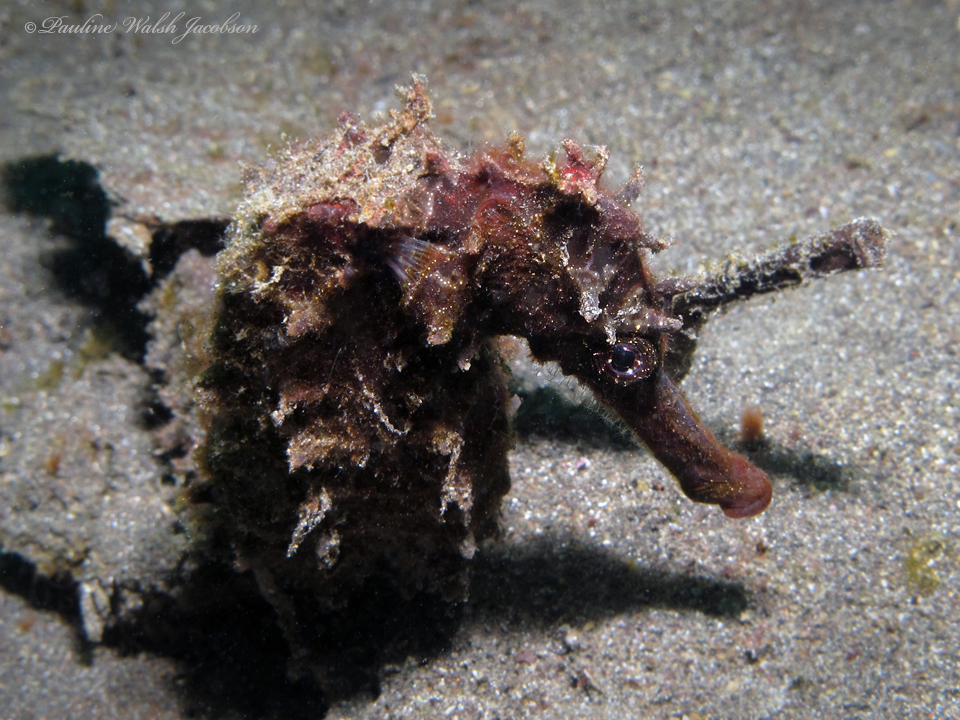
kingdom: Animalia
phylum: Chordata
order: Syngnathiformes
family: Syngnathidae
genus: Hippocampus
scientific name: Hippocampus spinosissimus
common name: Hedgehog seahorse
